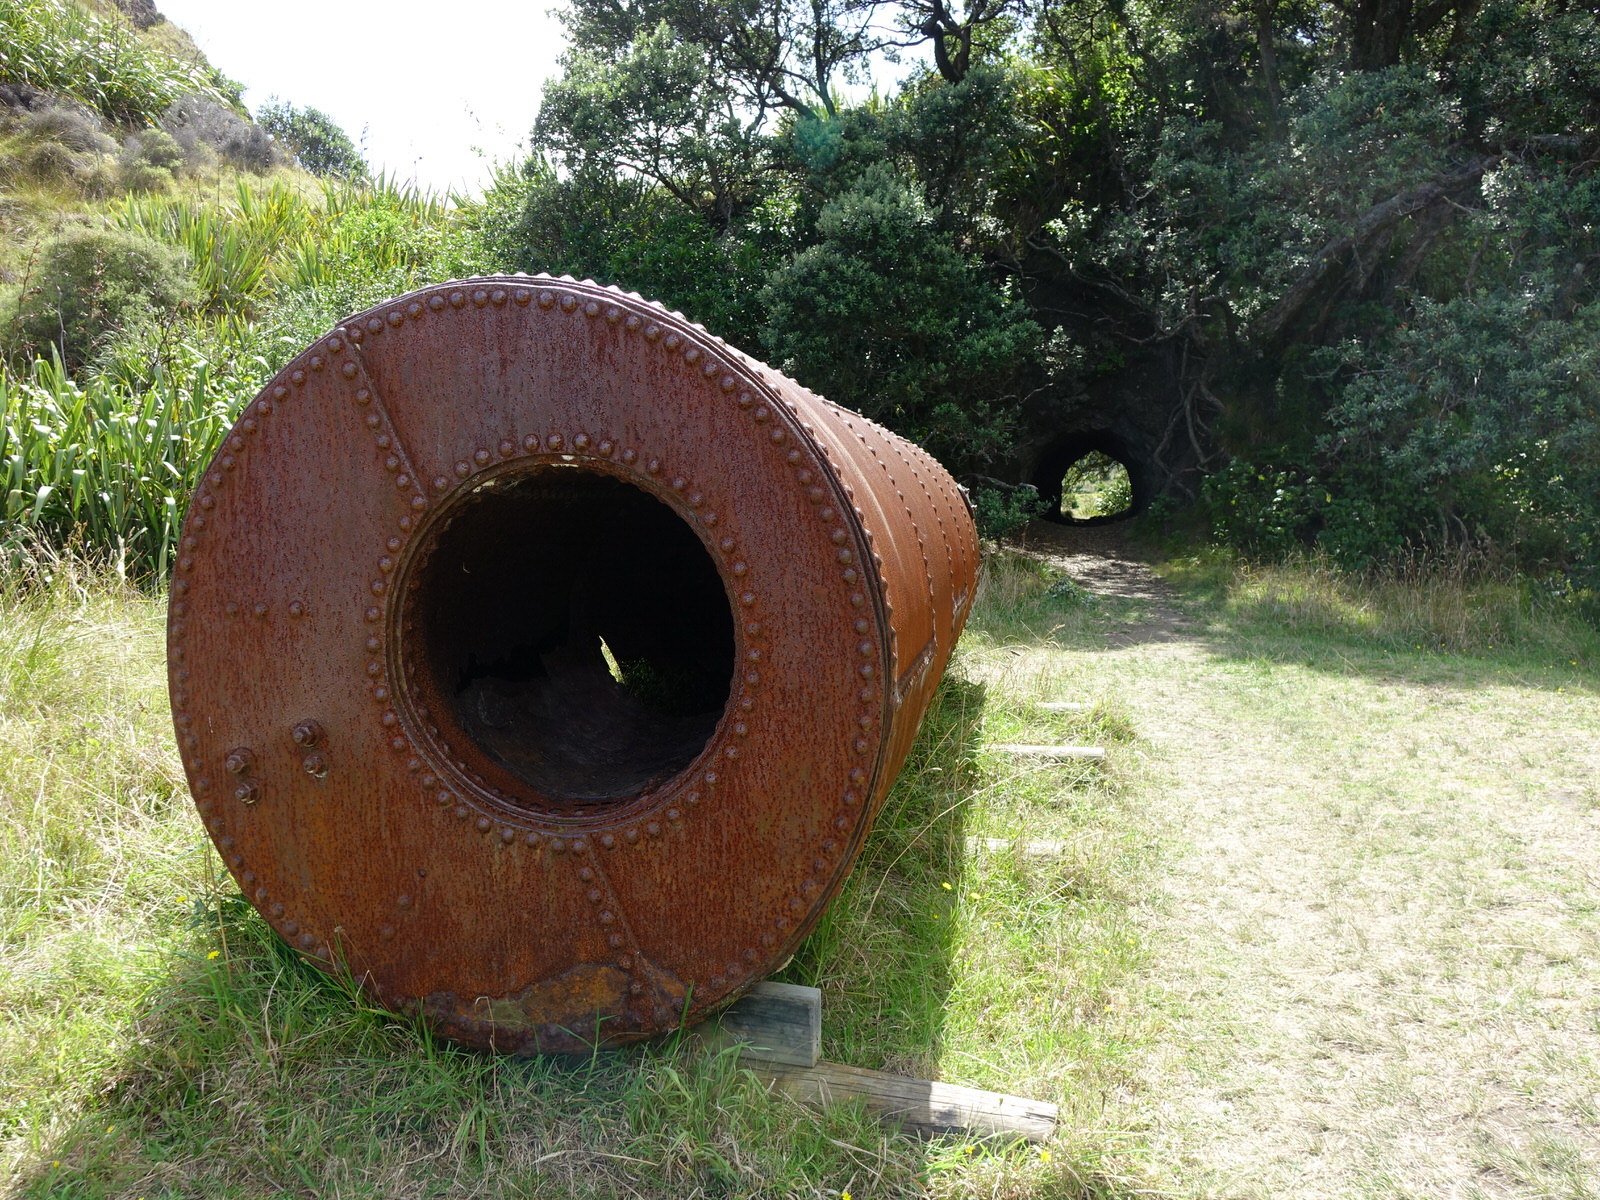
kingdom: Animalia
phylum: Arthropoda
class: Insecta
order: Phasmida
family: Phasmatidae
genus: Clitarchus
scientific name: Clitarchus hookeri
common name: Smooth stick insect
